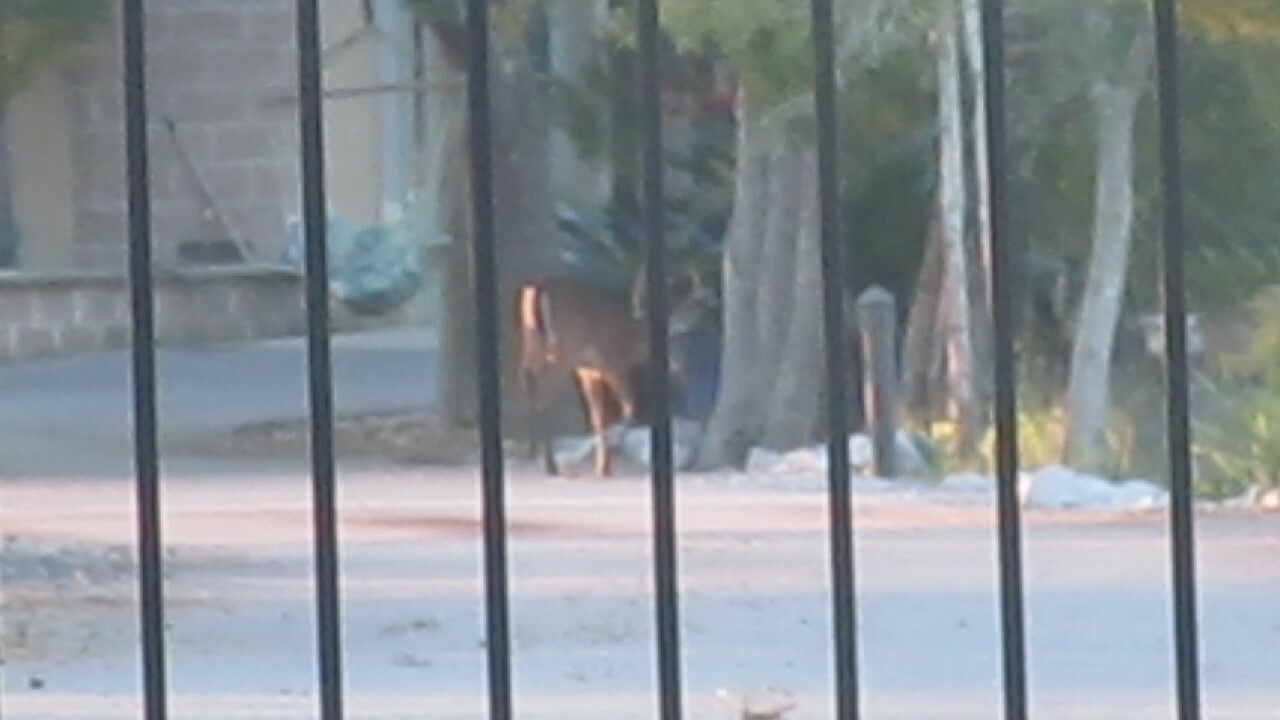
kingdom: Animalia
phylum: Chordata
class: Mammalia
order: Artiodactyla
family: Cervidae
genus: Odocoileus
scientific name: Odocoileus virginianus
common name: White-tailed deer
